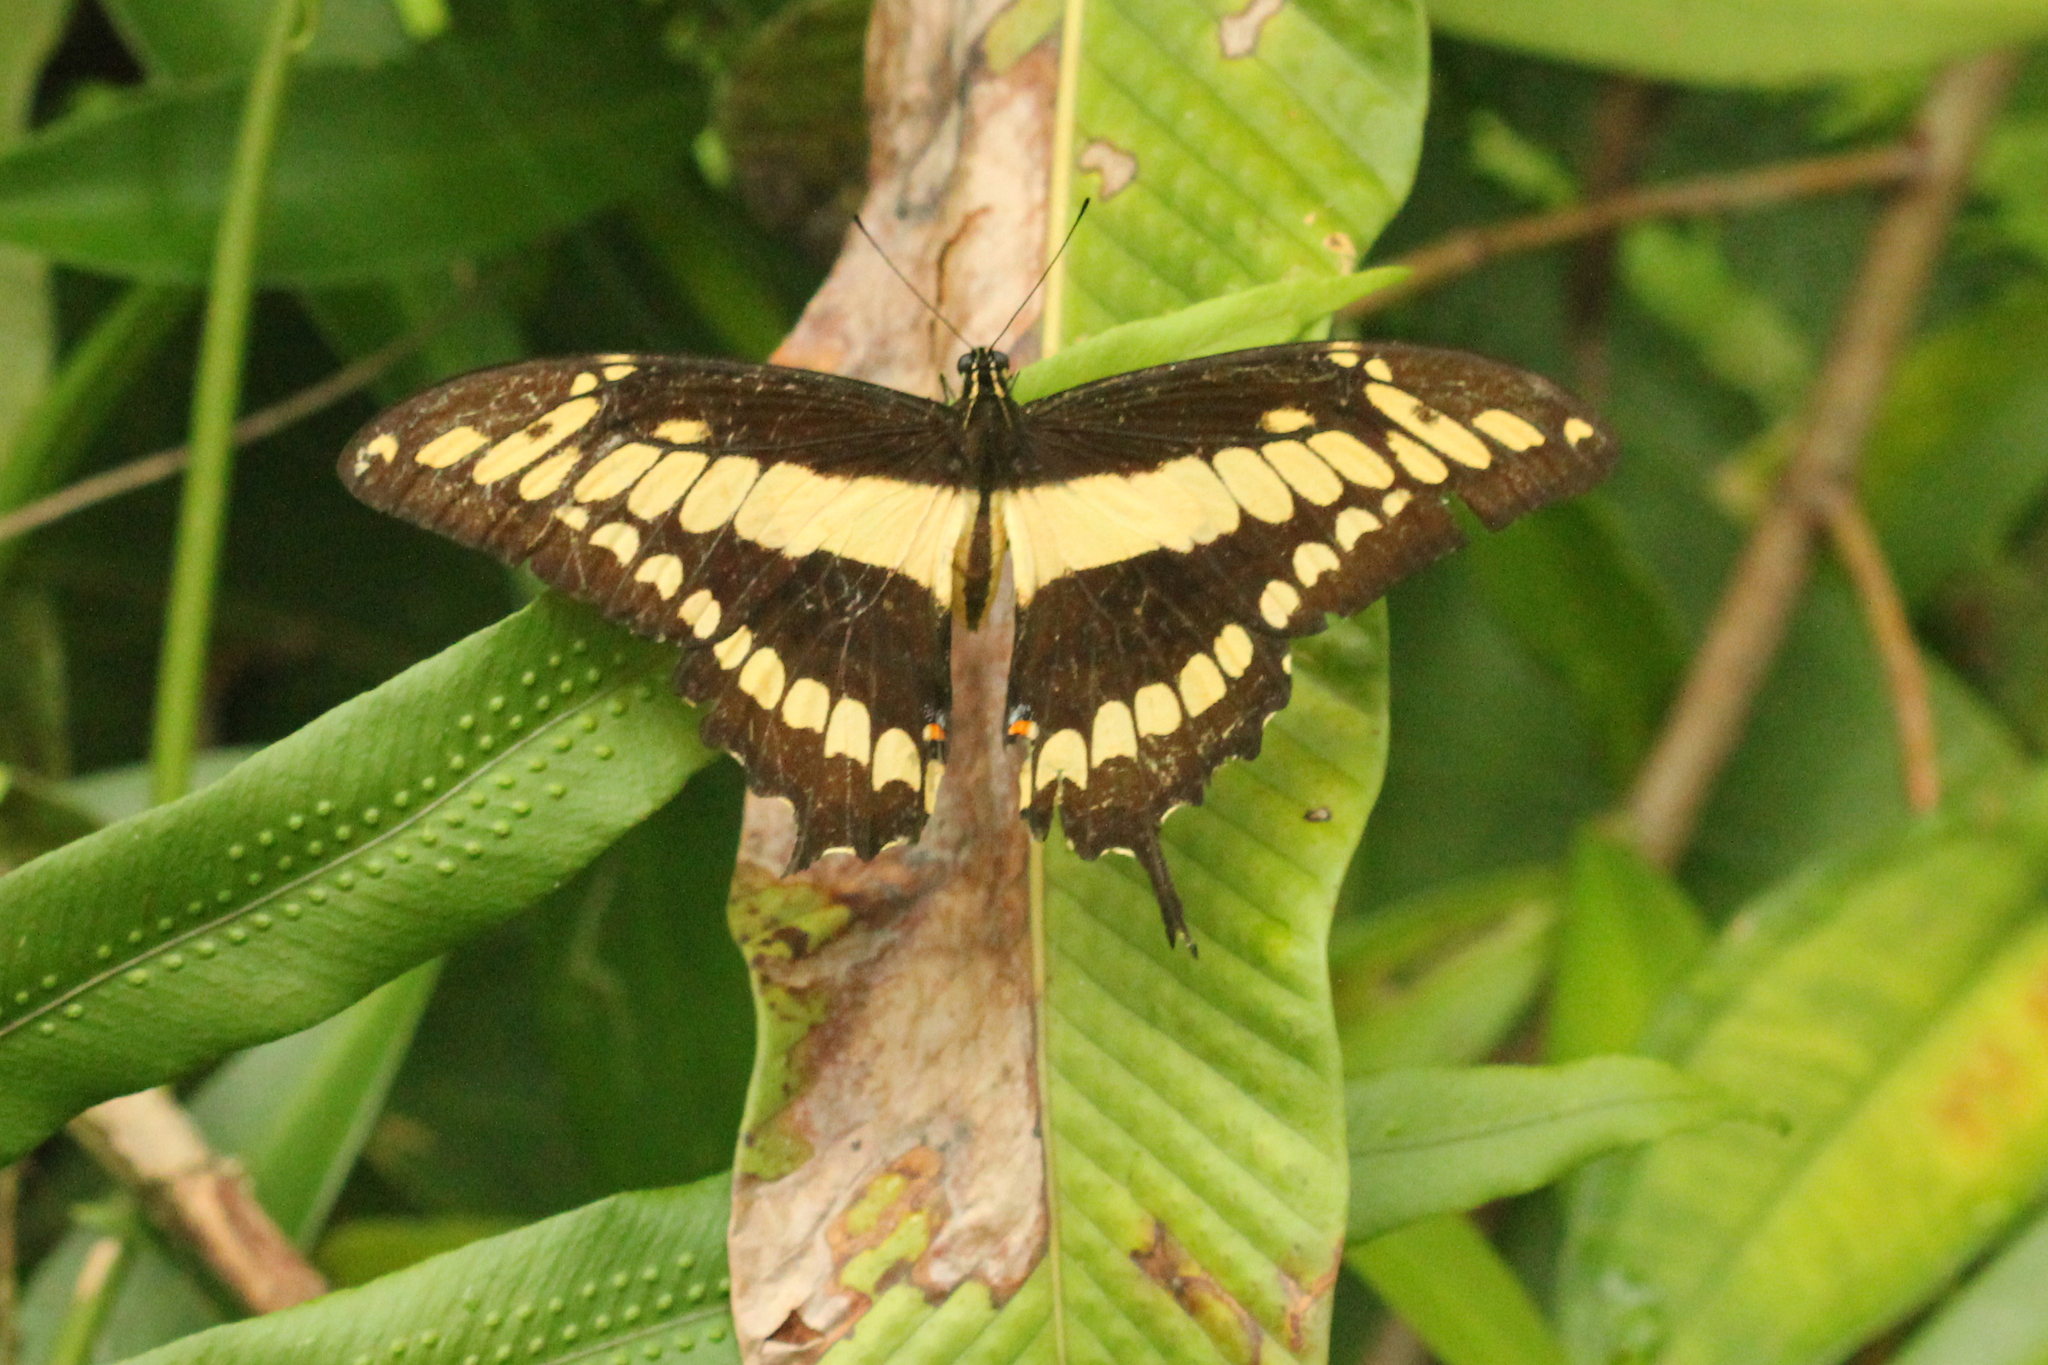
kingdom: Animalia
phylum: Arthropoda
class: Insecta
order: Lepidoptera
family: Papilionidae
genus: Papilio
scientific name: Papilio thoas
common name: King swallowtail
